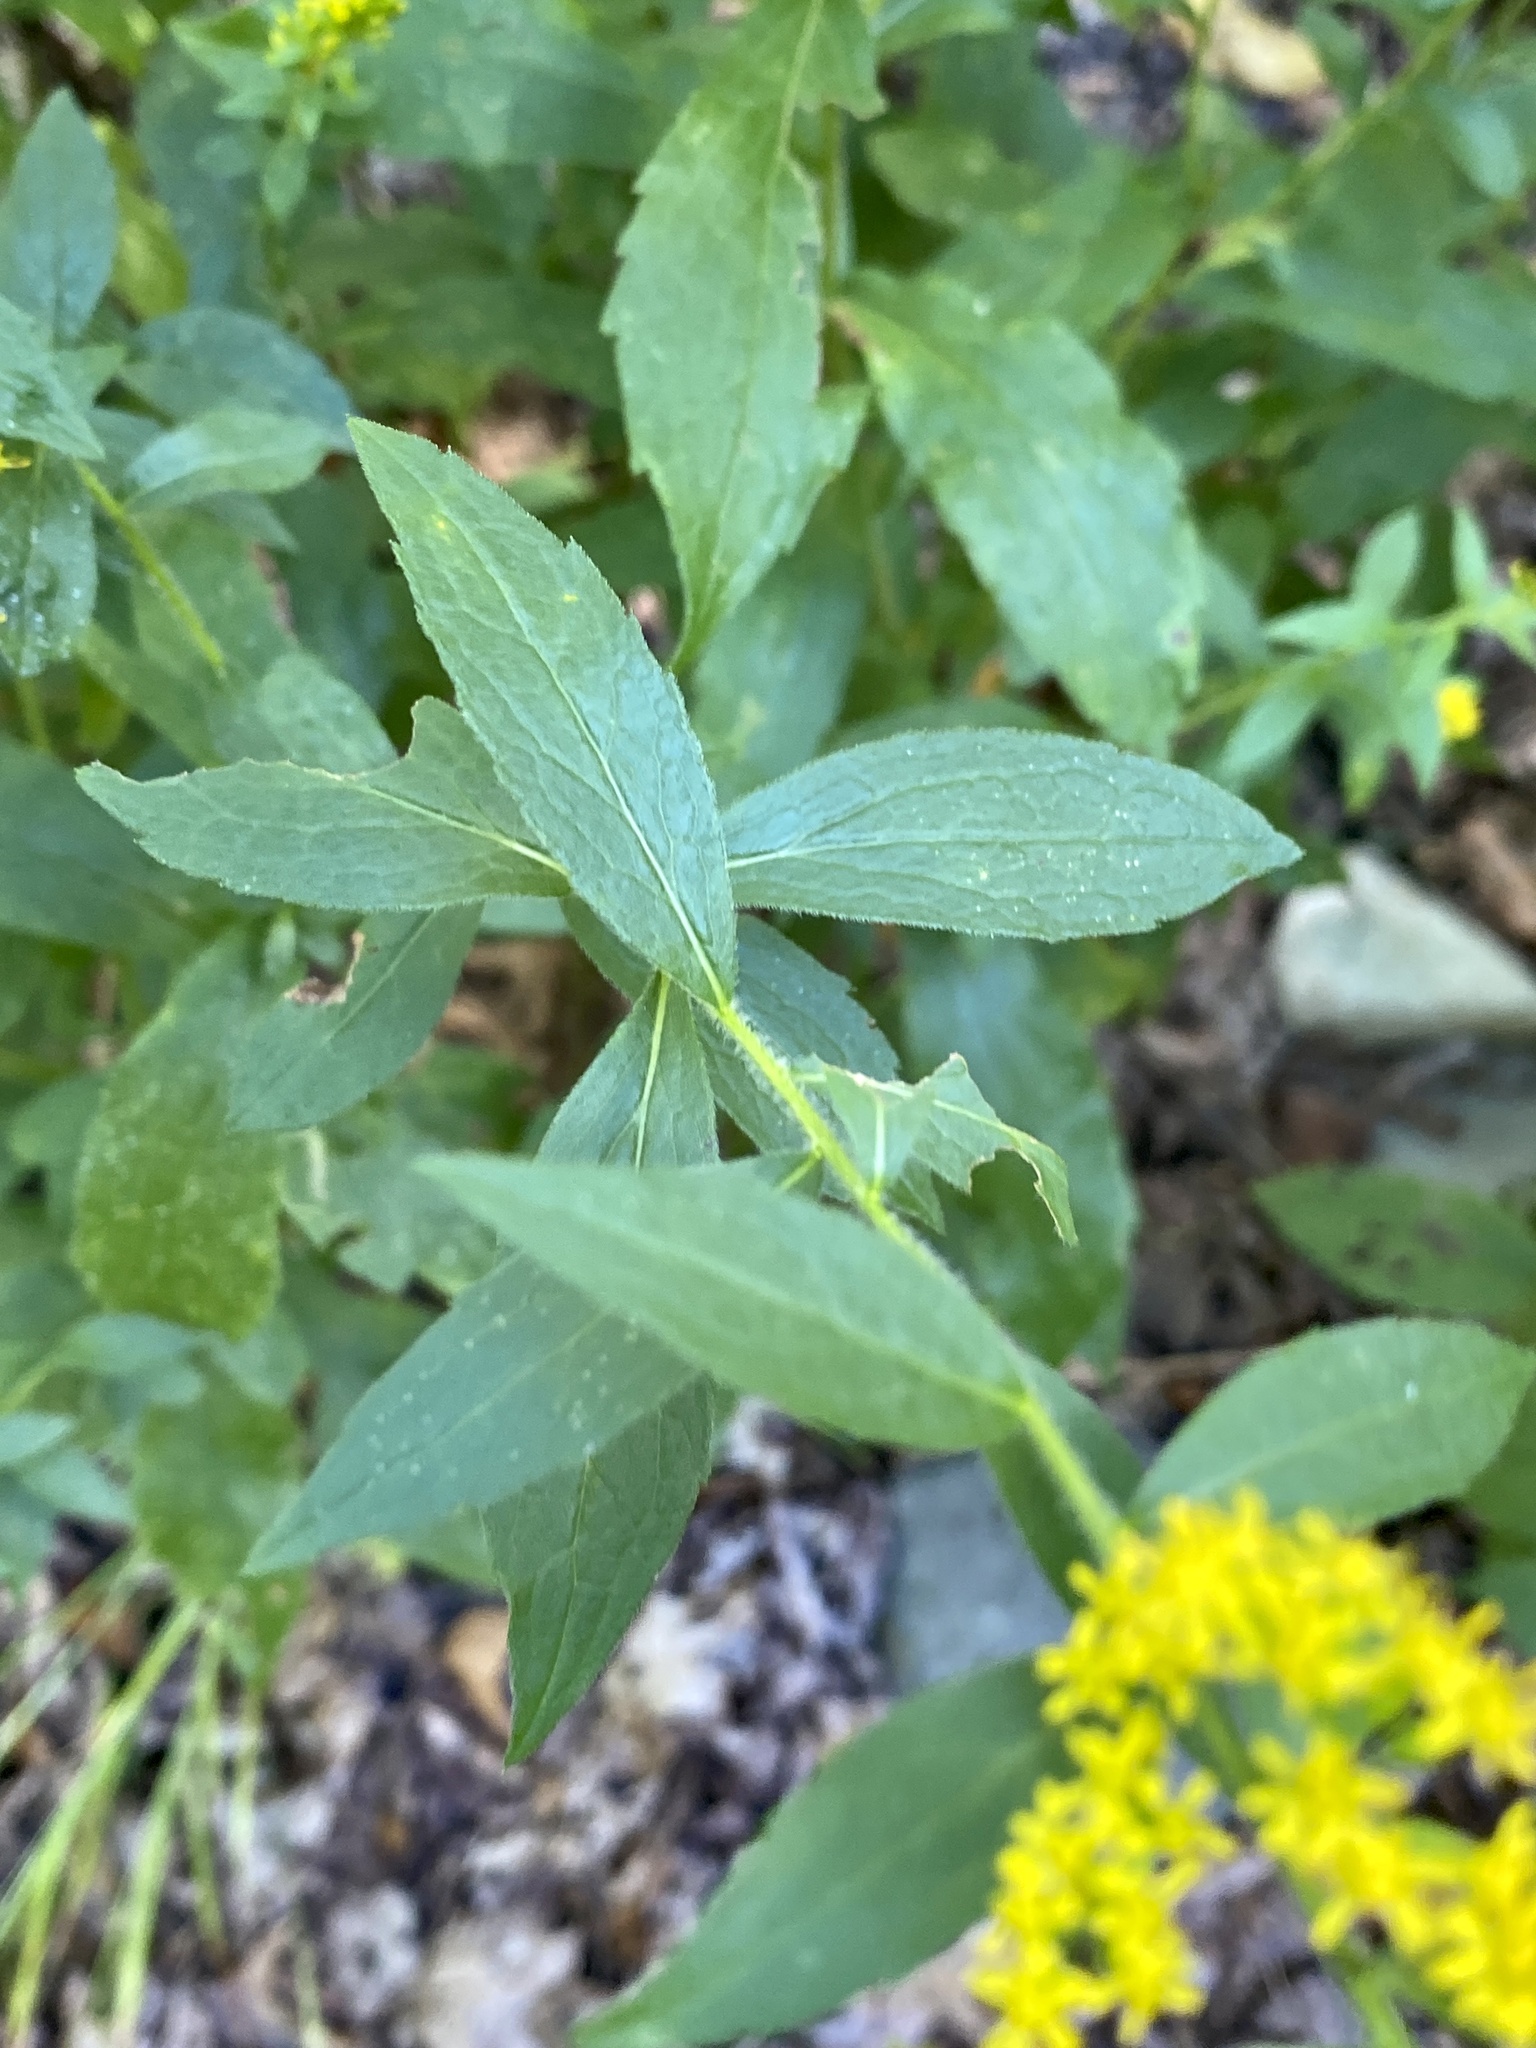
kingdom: Plantae
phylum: Tracheophyta
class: Magnoliopsida
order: Asterales
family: Asteraceae
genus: Solidago
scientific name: Solidago rugosa
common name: Rough-stemmed goldenrod
